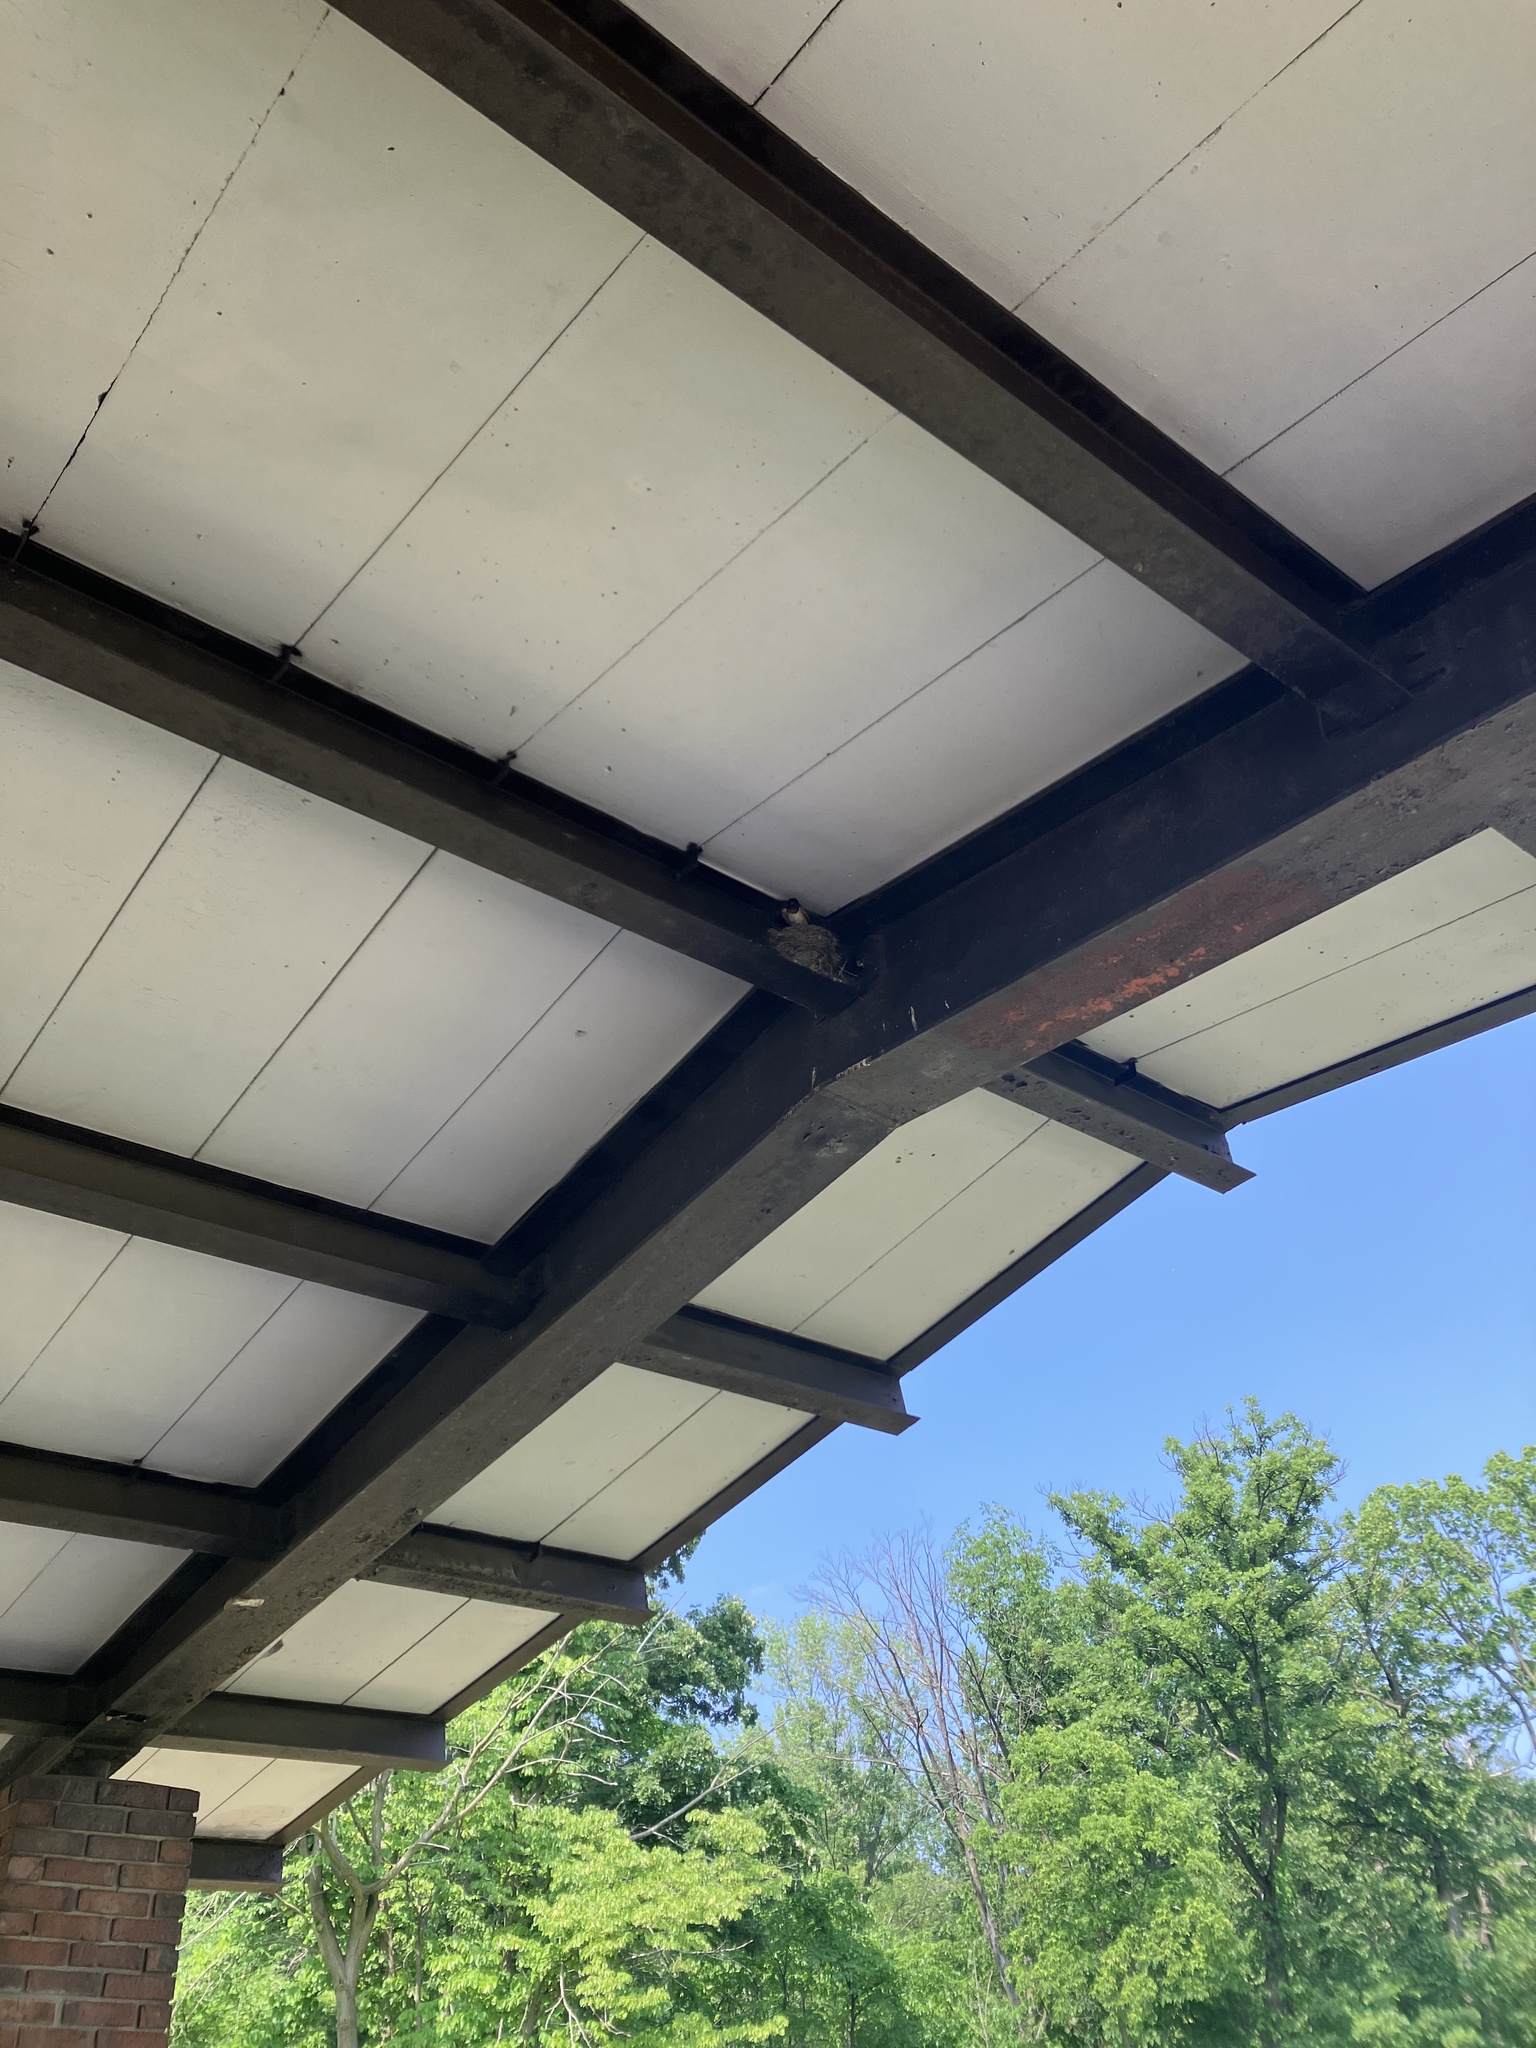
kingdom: Animalia
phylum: Chordata
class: Aves
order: Passeriformes
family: Hirundinidae
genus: Hirundo
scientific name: Hirundo rustica
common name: Barn swallow
